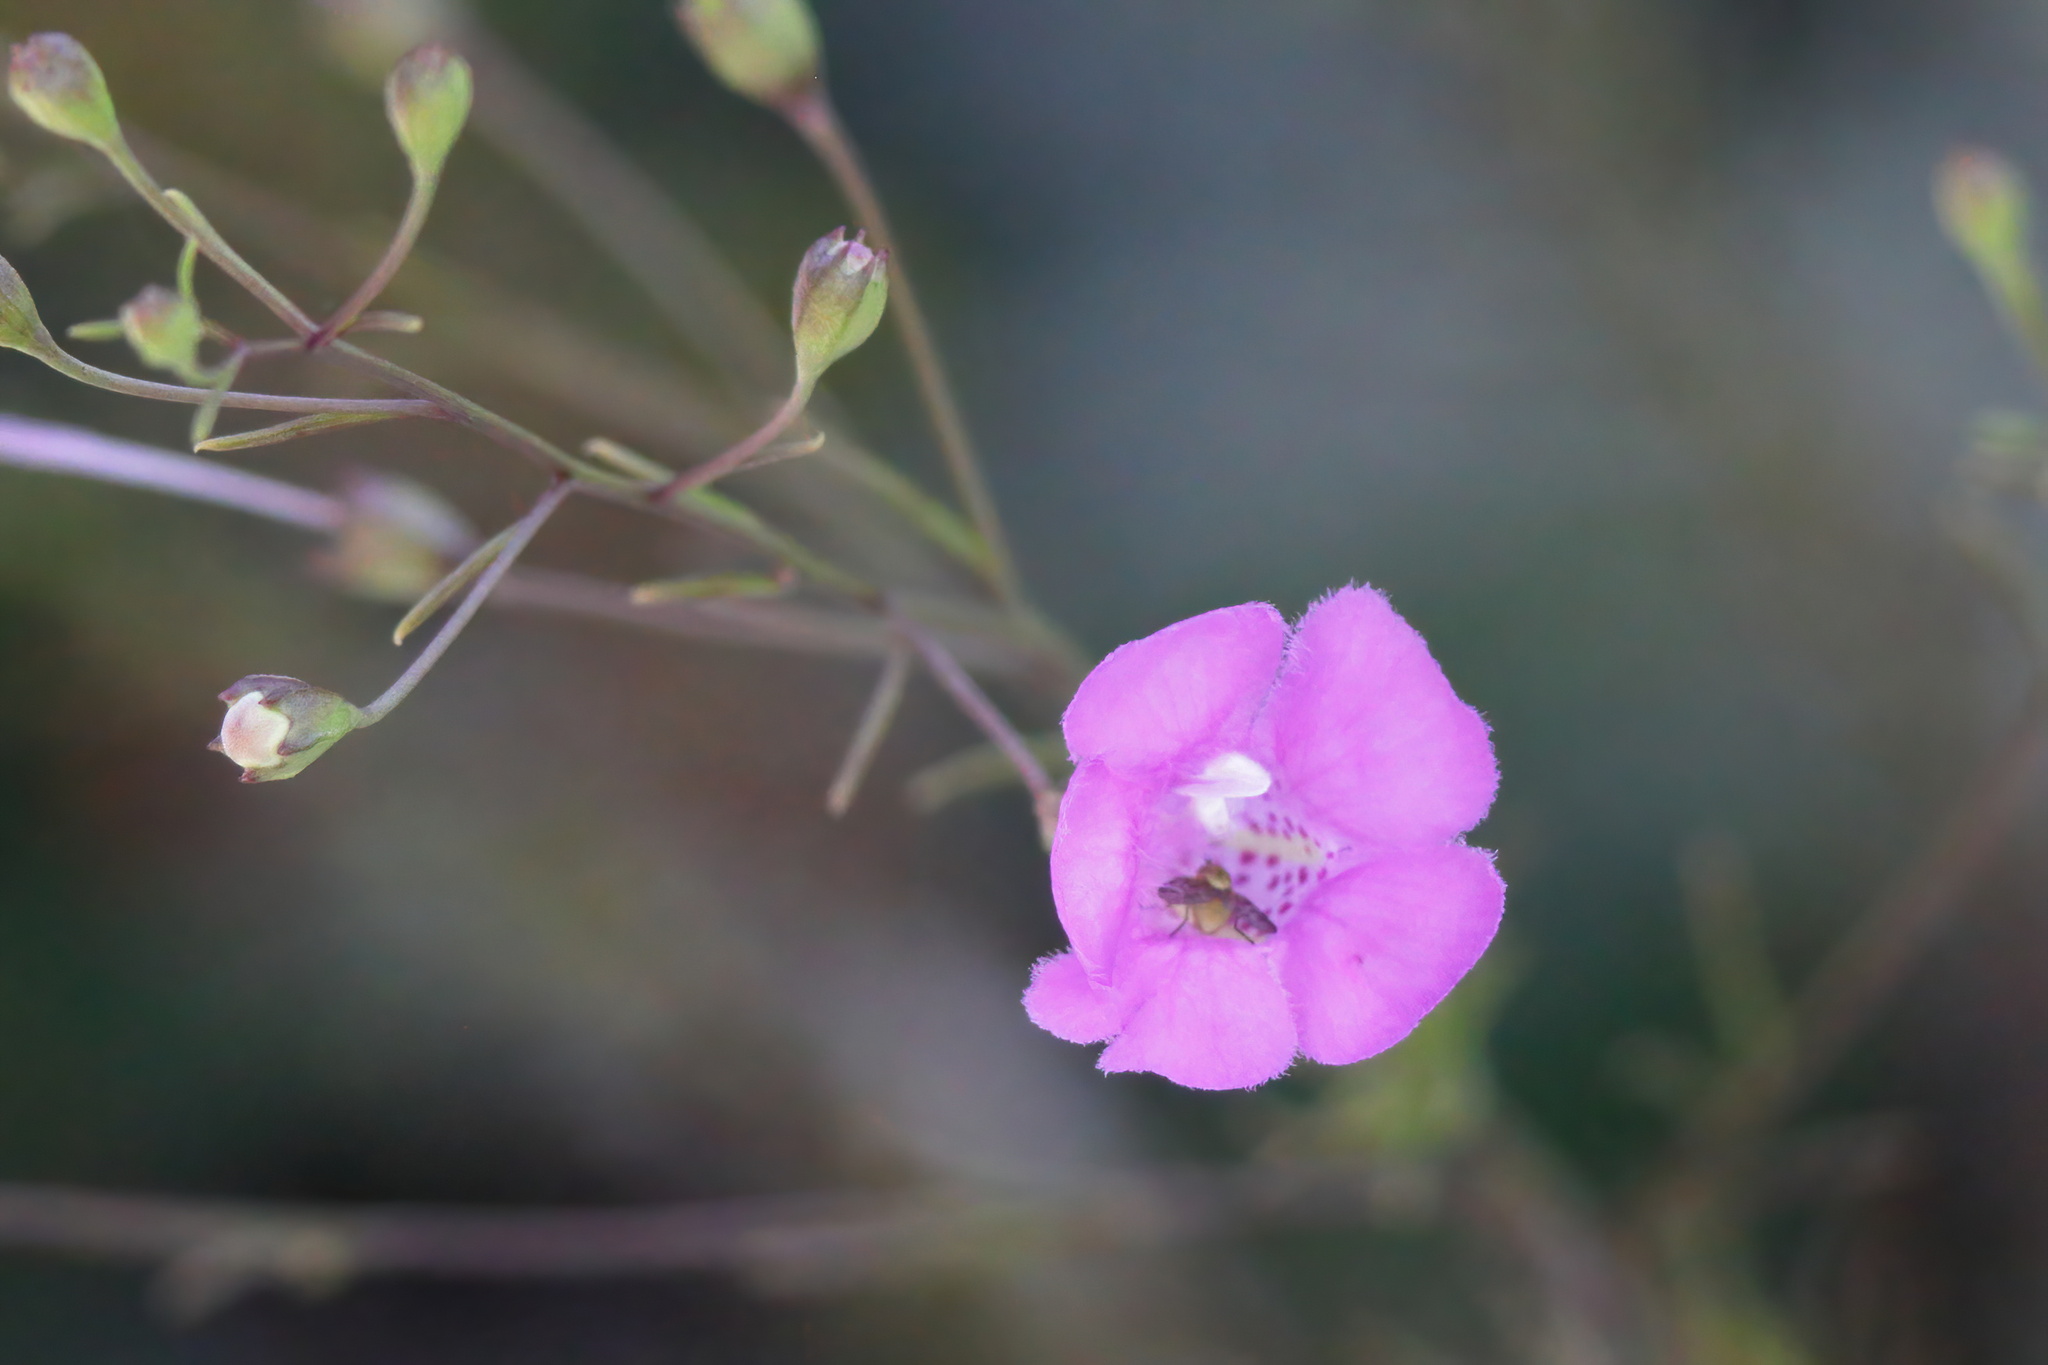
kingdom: Plantae
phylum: Tracheophyta
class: Magnoliopsida
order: Lamiales
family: Orobanchaceae
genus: Agalinis
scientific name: Agalinis fasciculata
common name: Beach false foxglove
